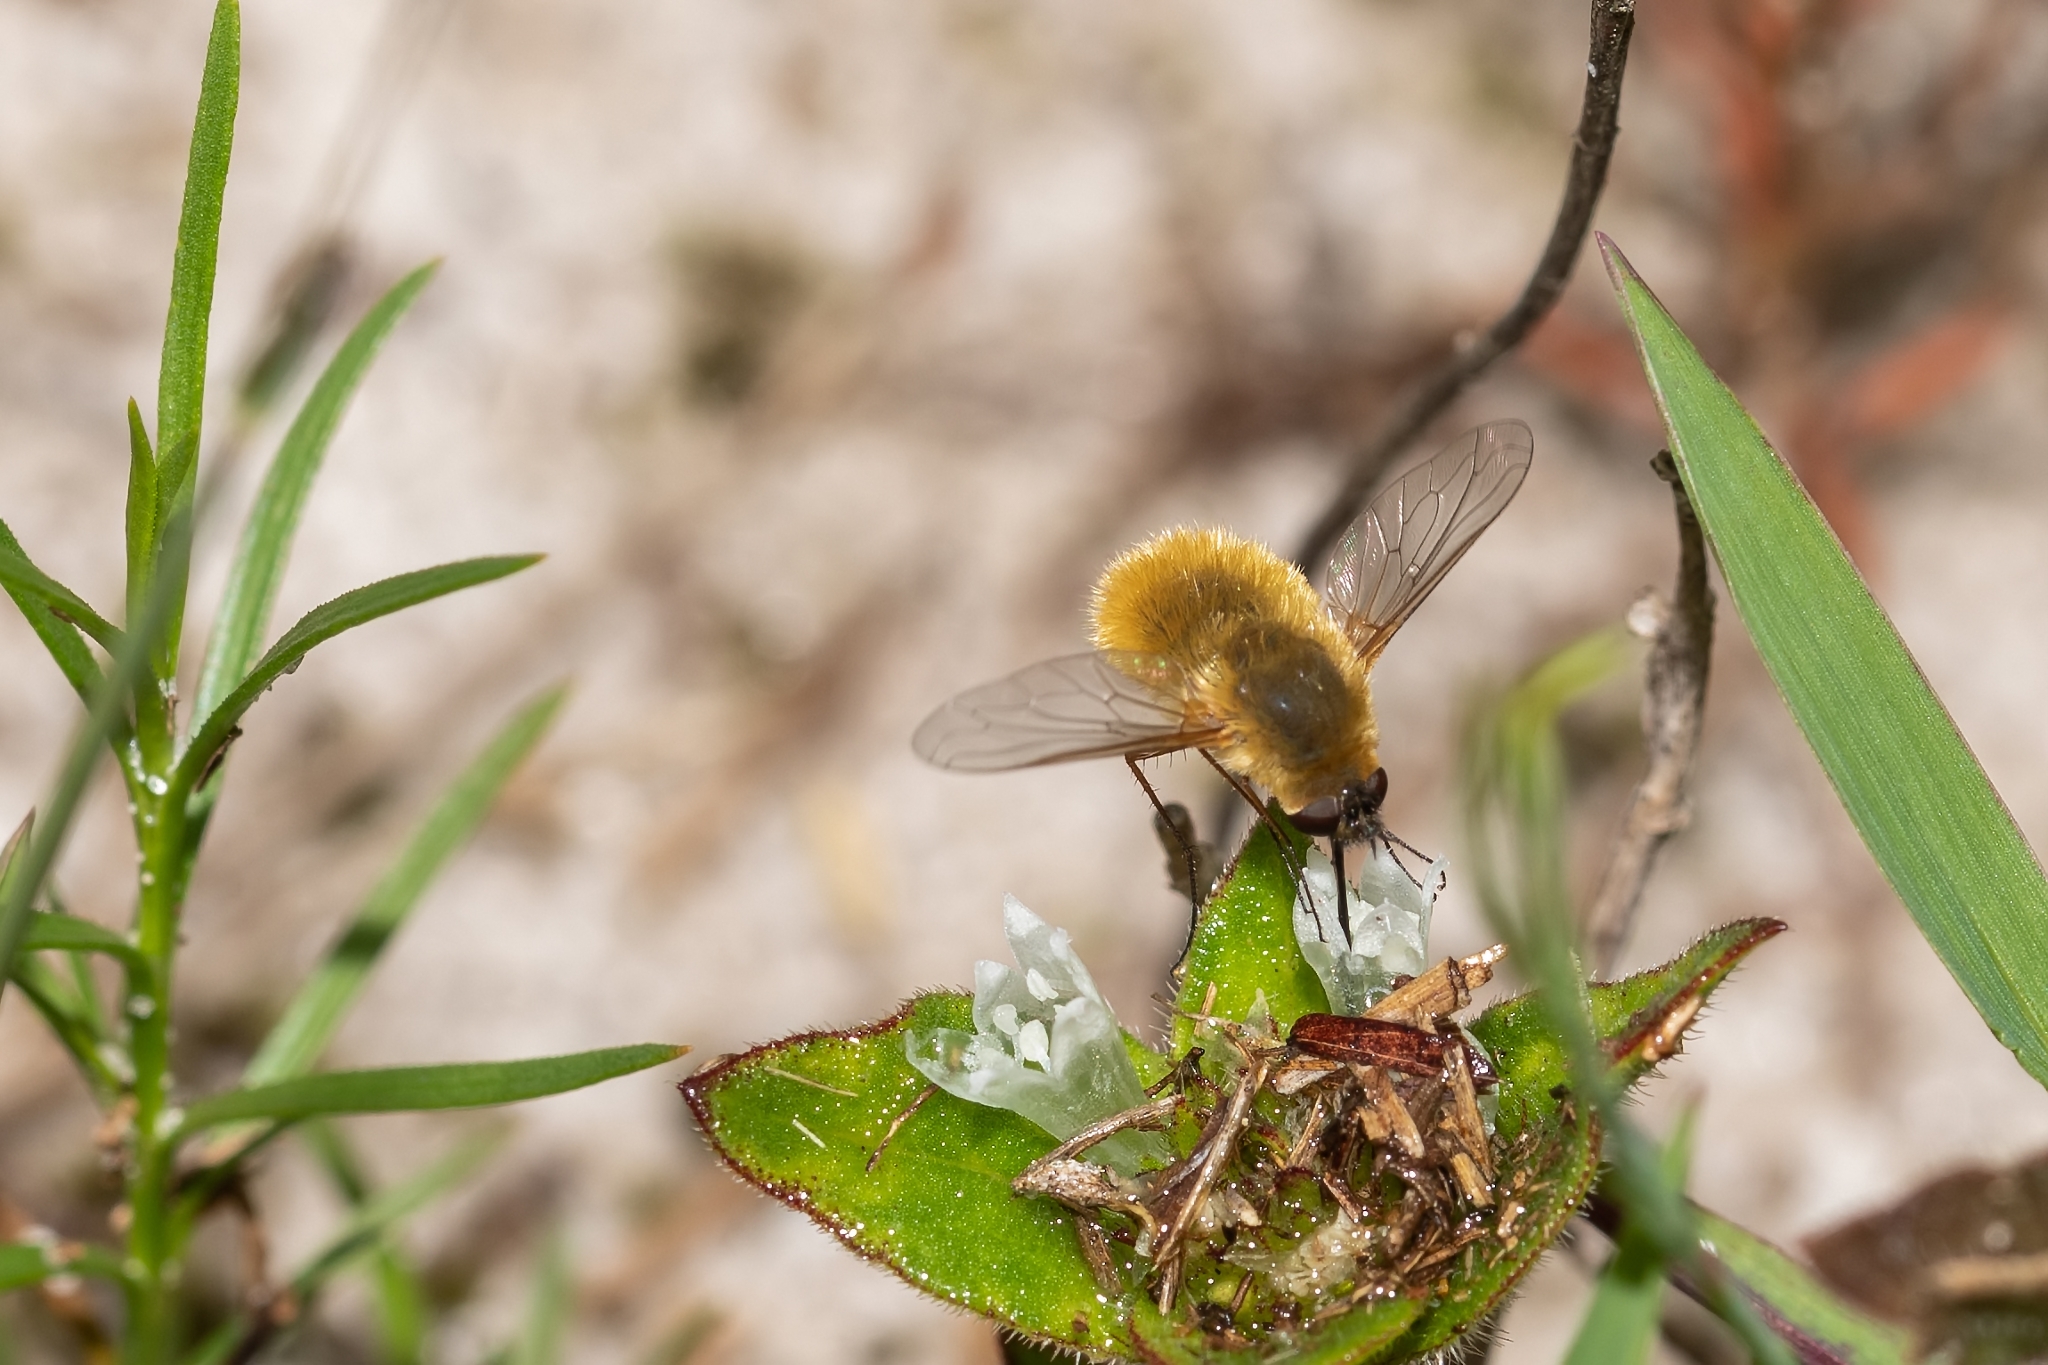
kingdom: Animalia
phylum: Arthropoda
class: Insecta
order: Diptera
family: Bombyliidae
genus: Systoechus
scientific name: Systoechus solitus
